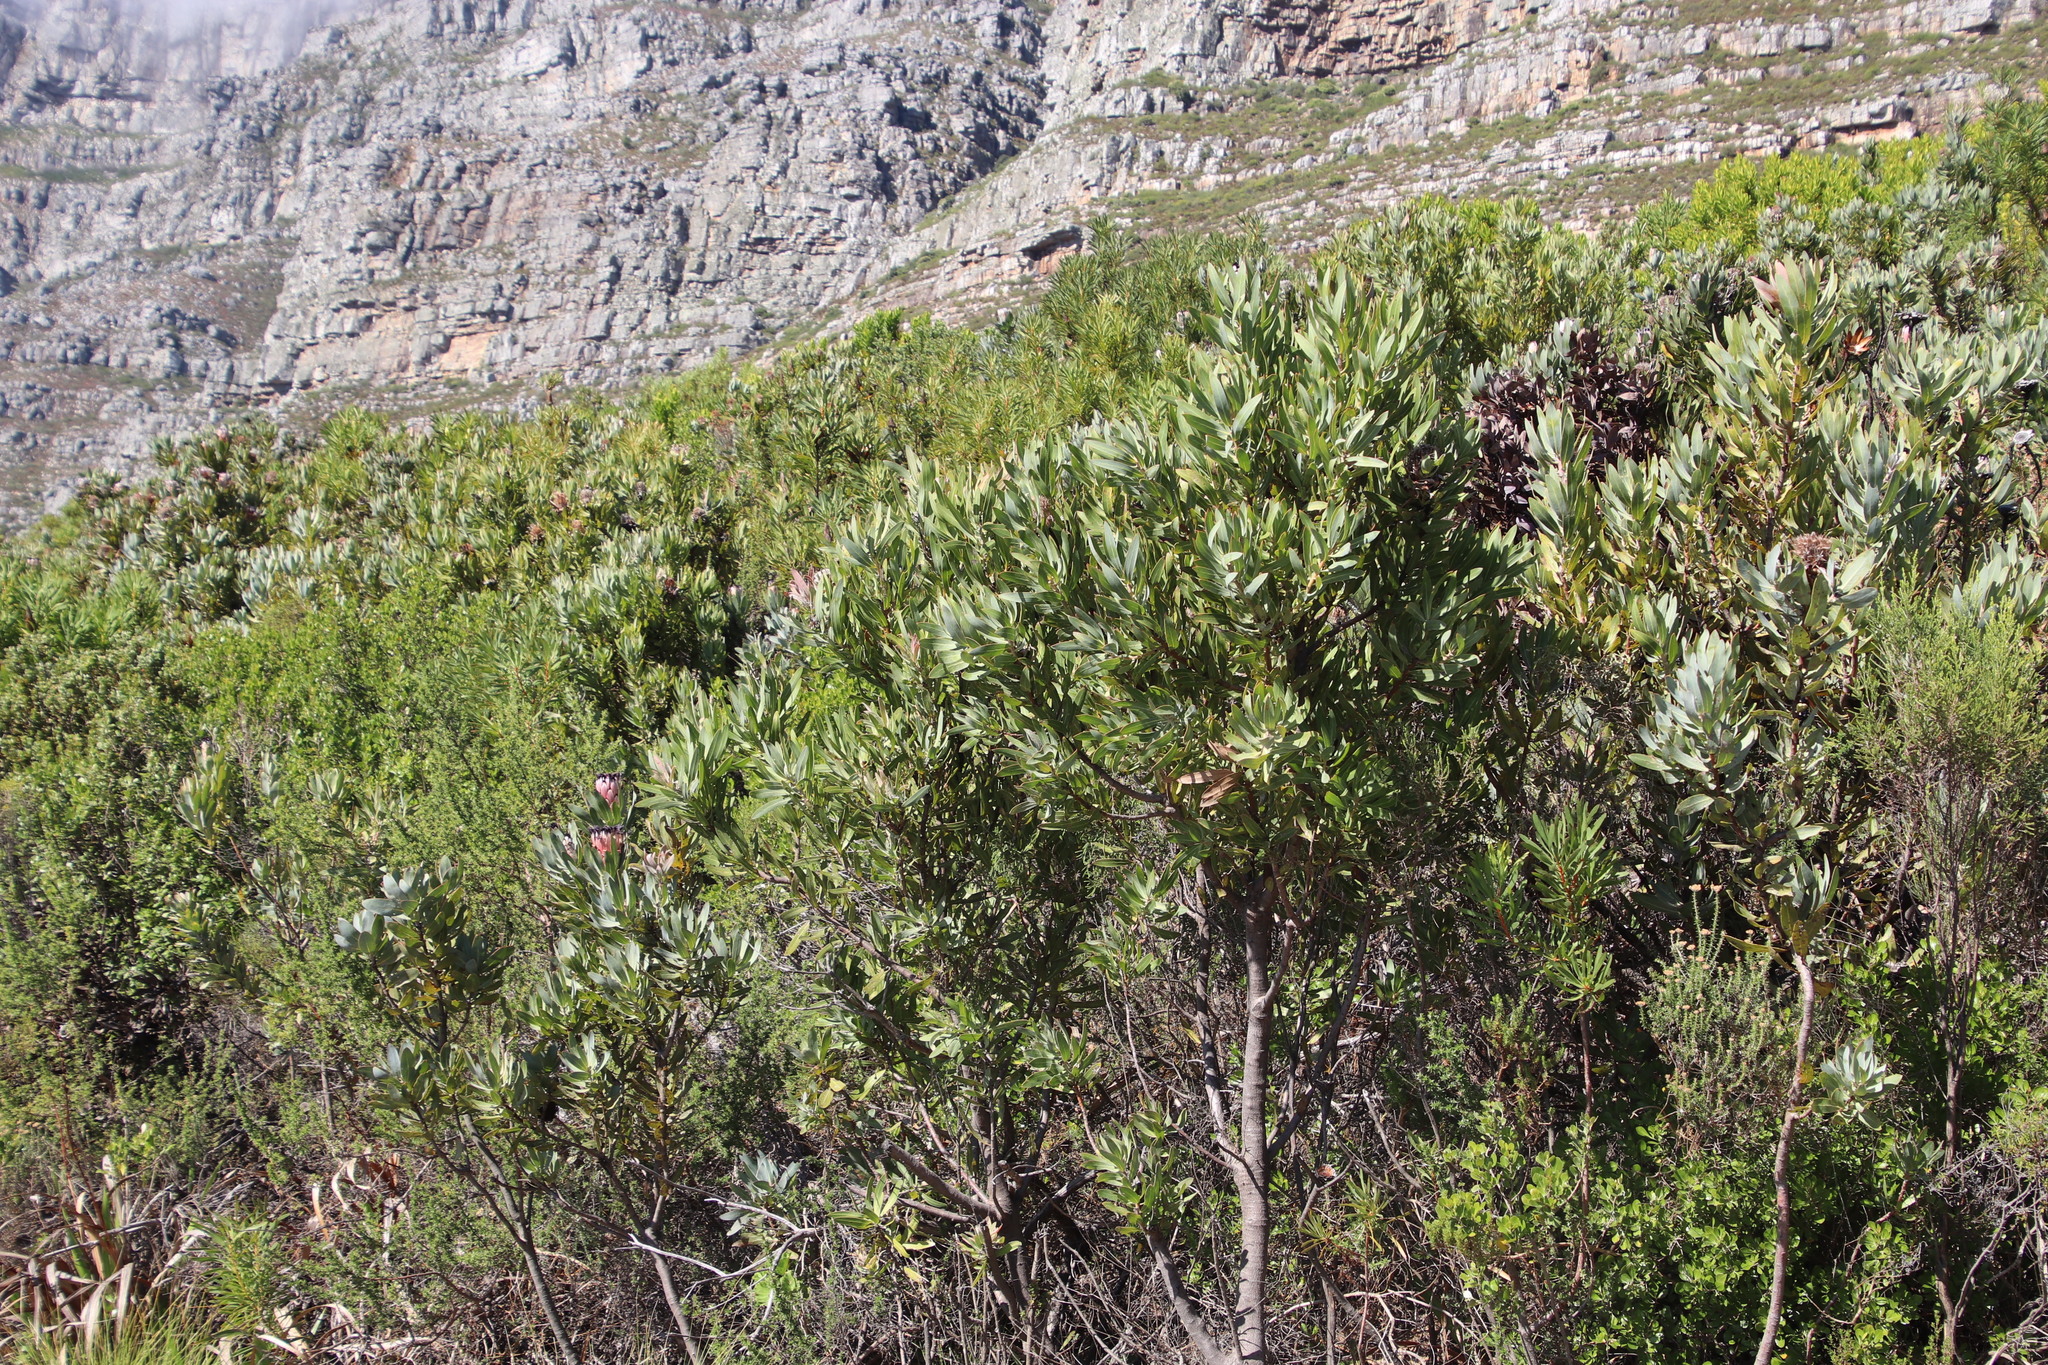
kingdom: Plantae
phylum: Tracheophyta
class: Magnoliopsida
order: Proteales
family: Proteaceae
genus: Protea
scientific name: Protea laurifolia
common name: Grey-leaf sugarbsh
